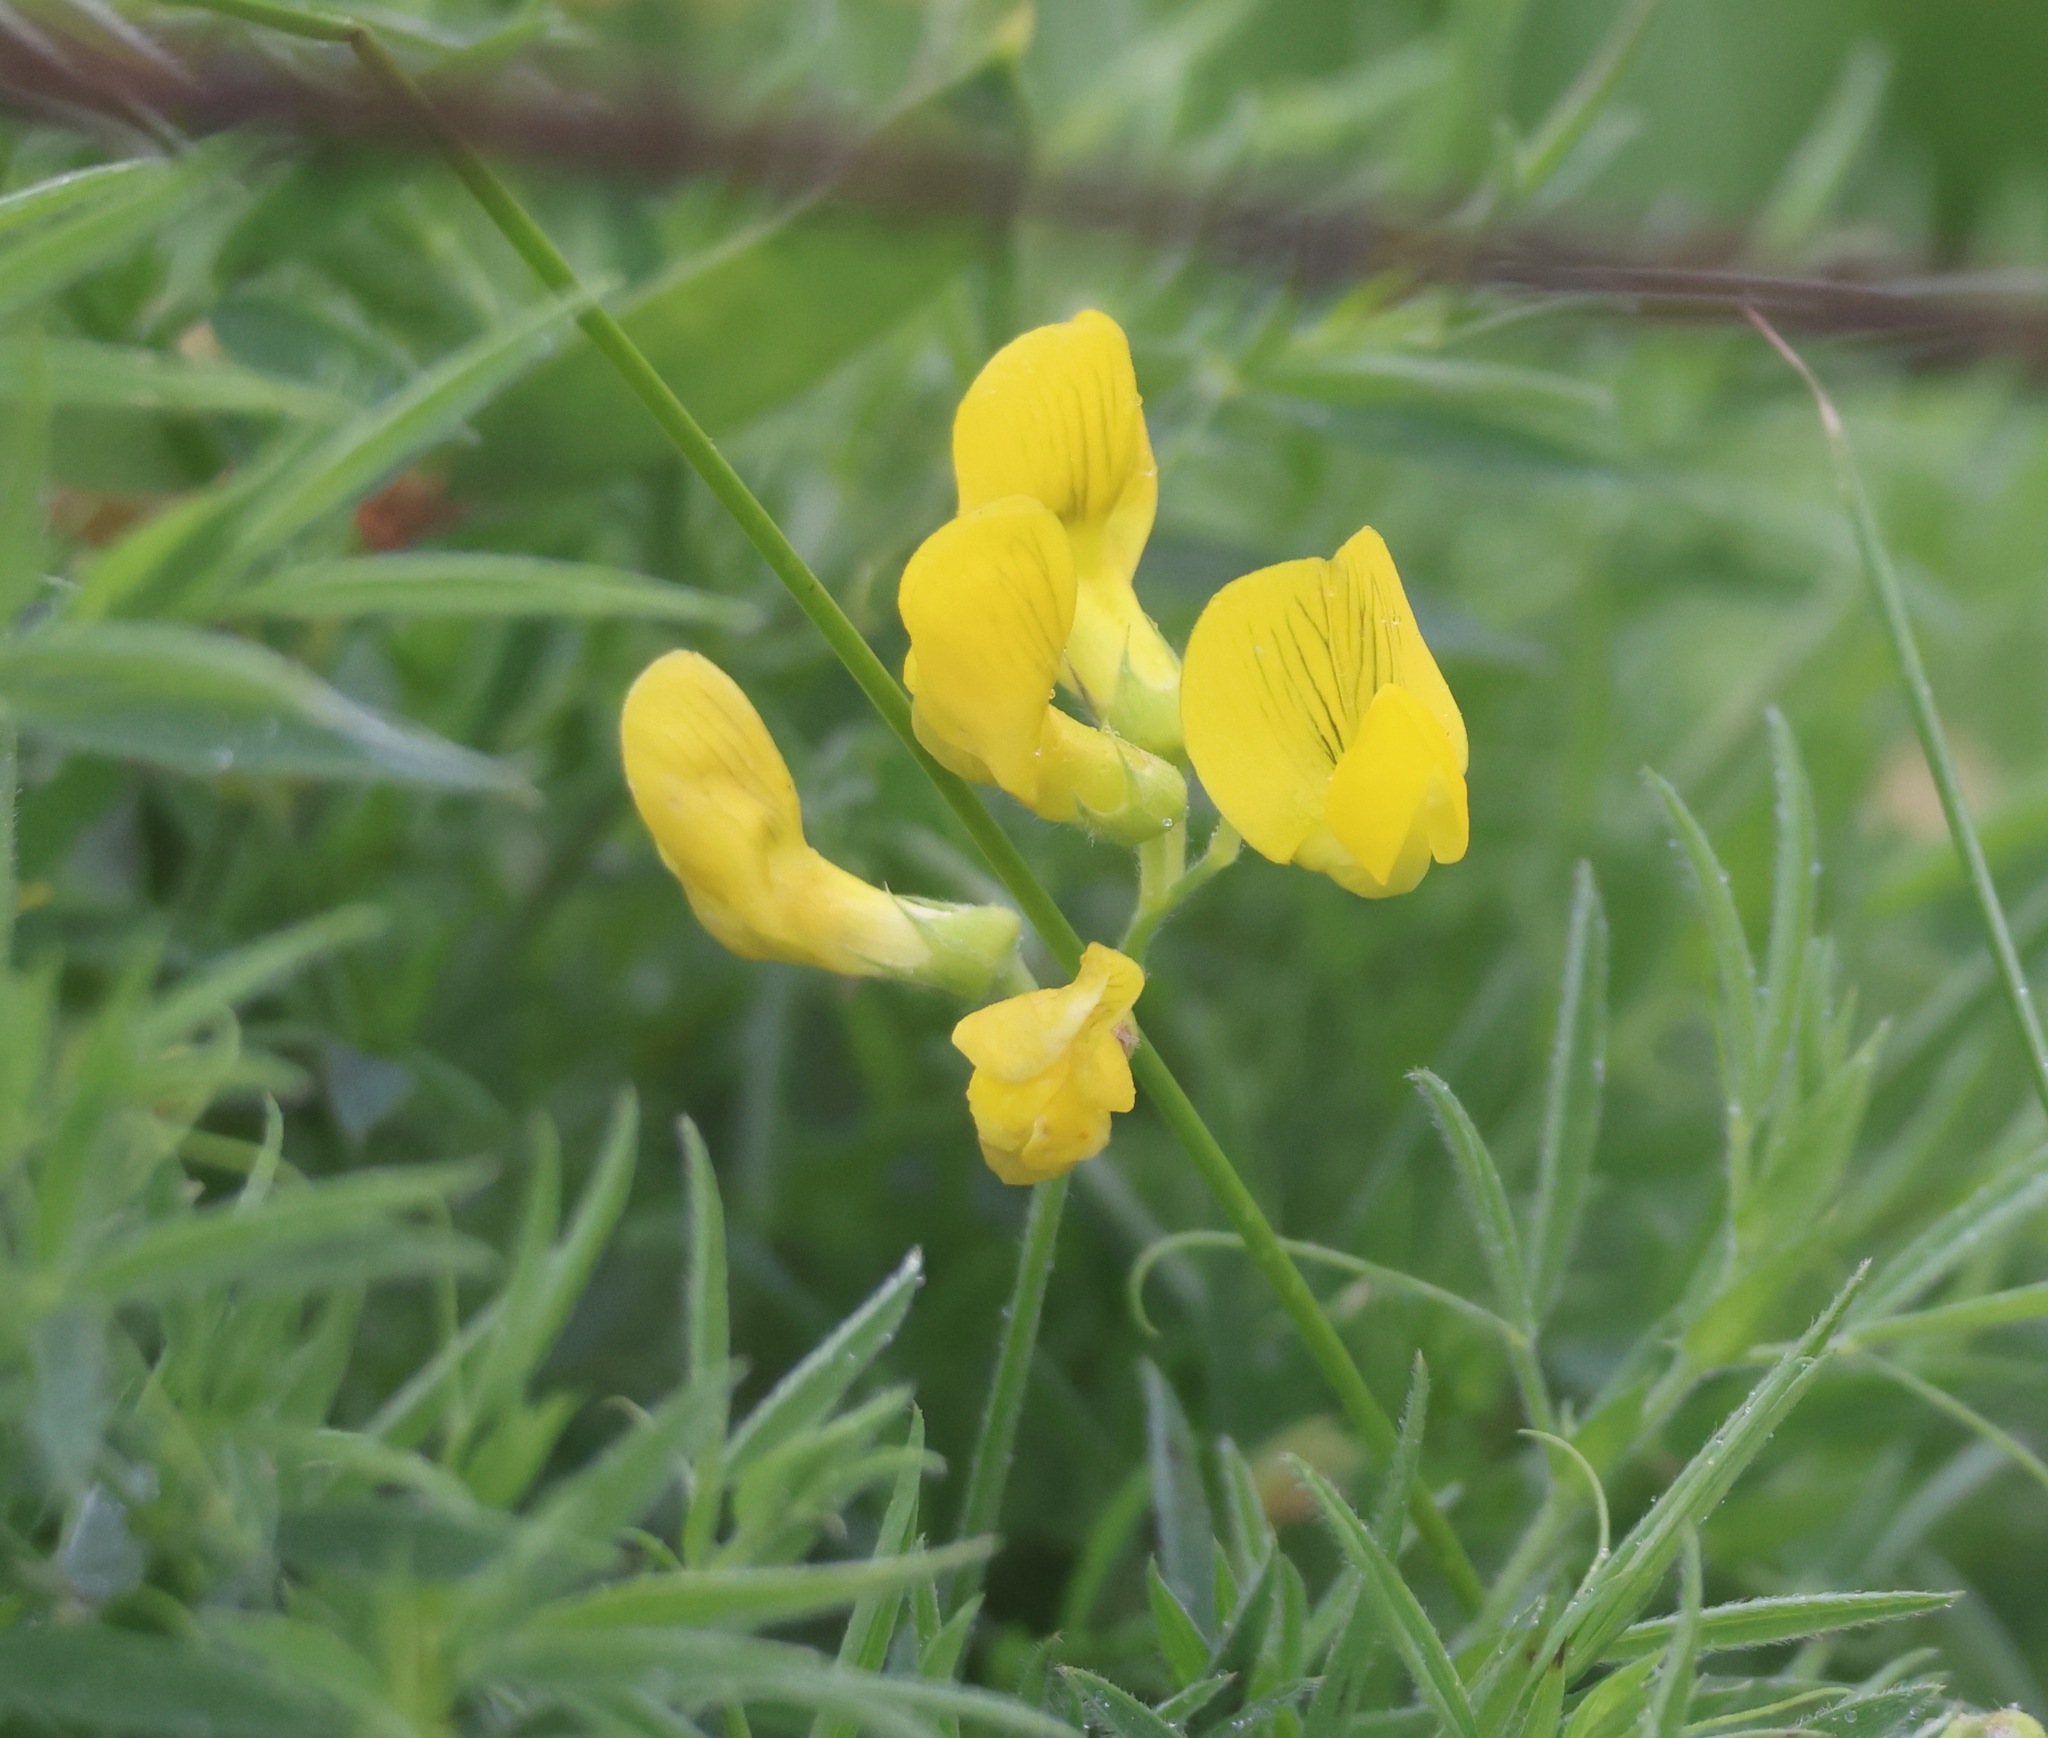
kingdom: Plantae
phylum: Tracheophyta
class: Magnoliopsida
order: Fabales
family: Fabaceae
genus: Lathyrus
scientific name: Lathyrus pratensis
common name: Meadow vetchling
